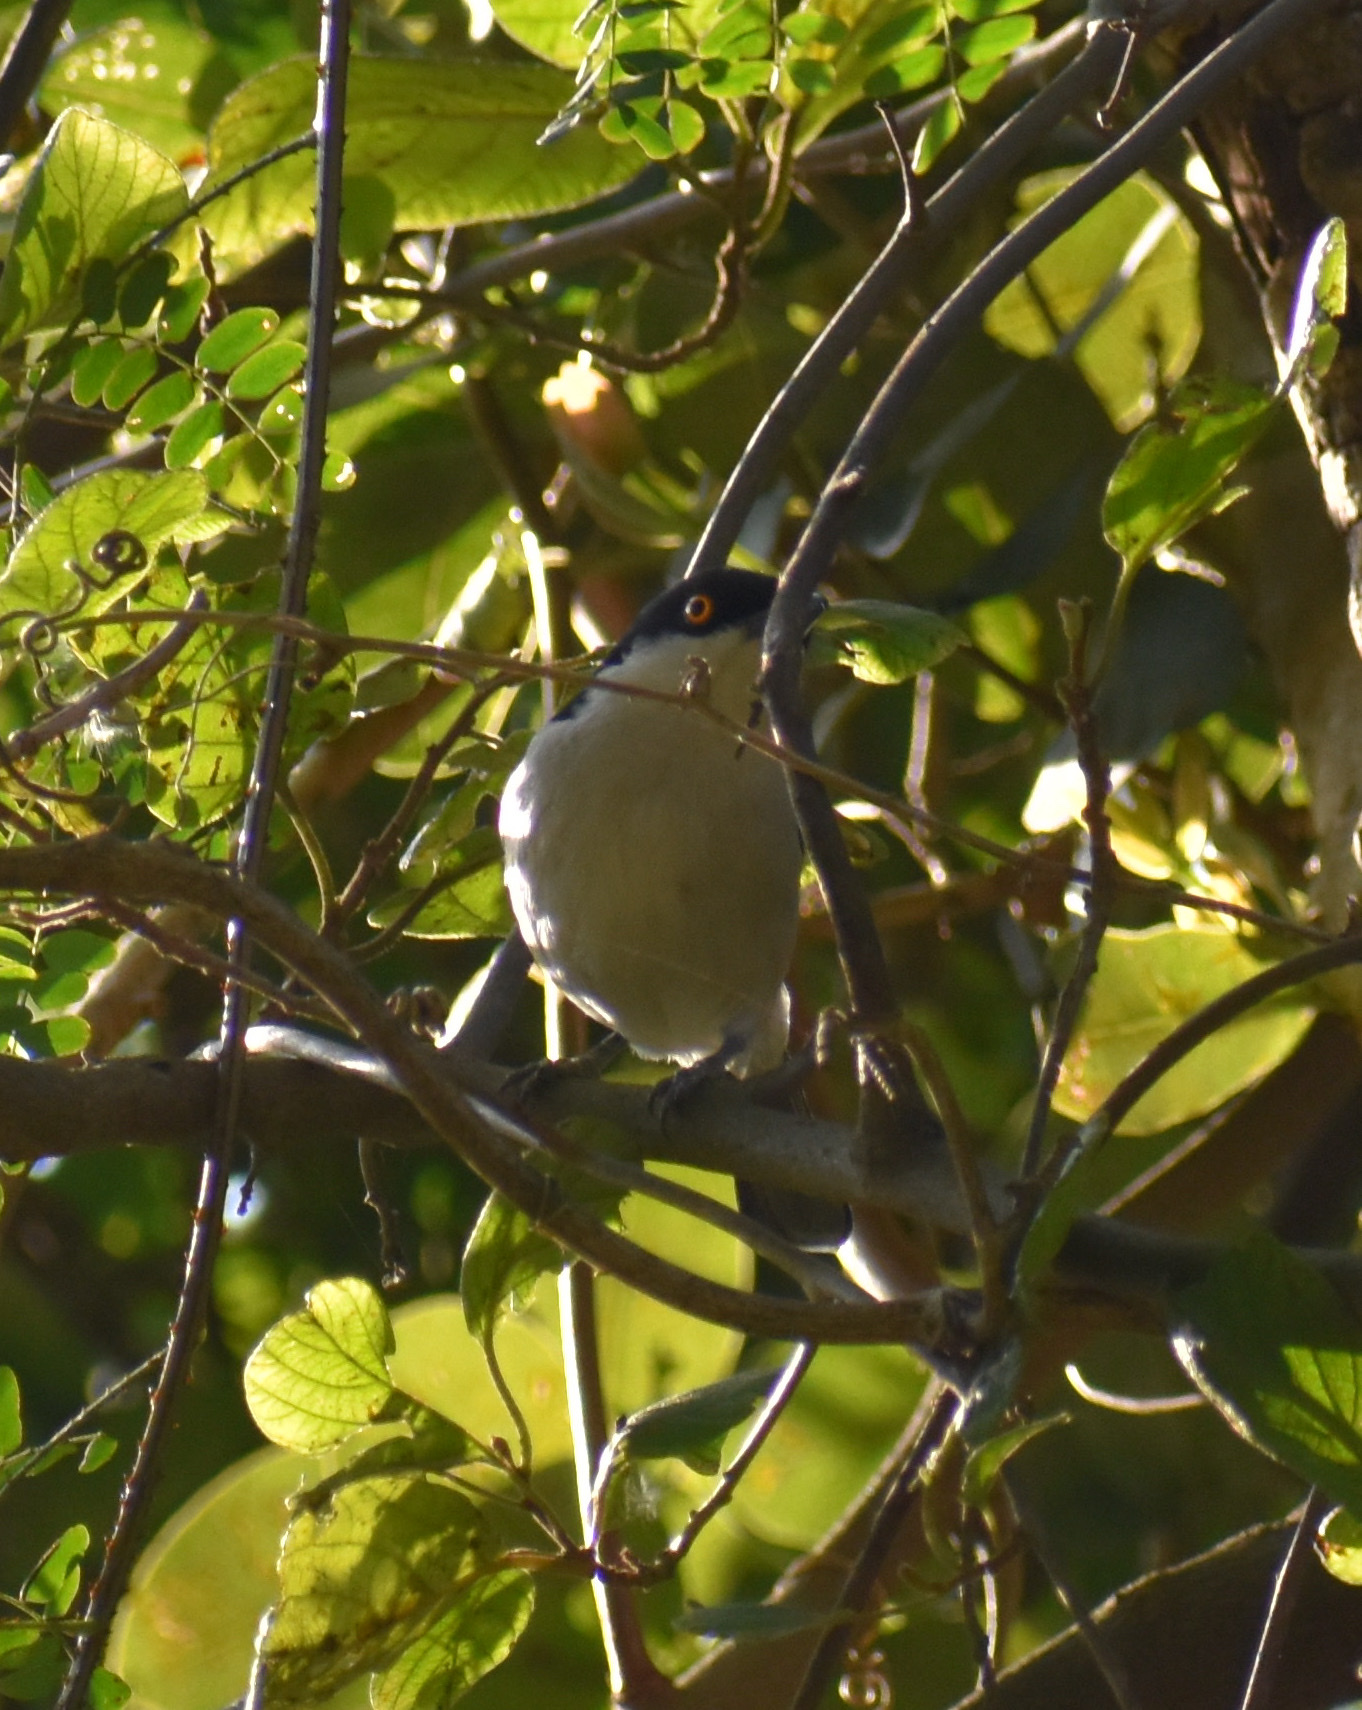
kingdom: Animalia
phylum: Chordata
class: Aves
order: Passeriformes
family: Malaconotidae
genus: Dryoscopus
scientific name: Dryoscopus cubla
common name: Black-backed puffback
